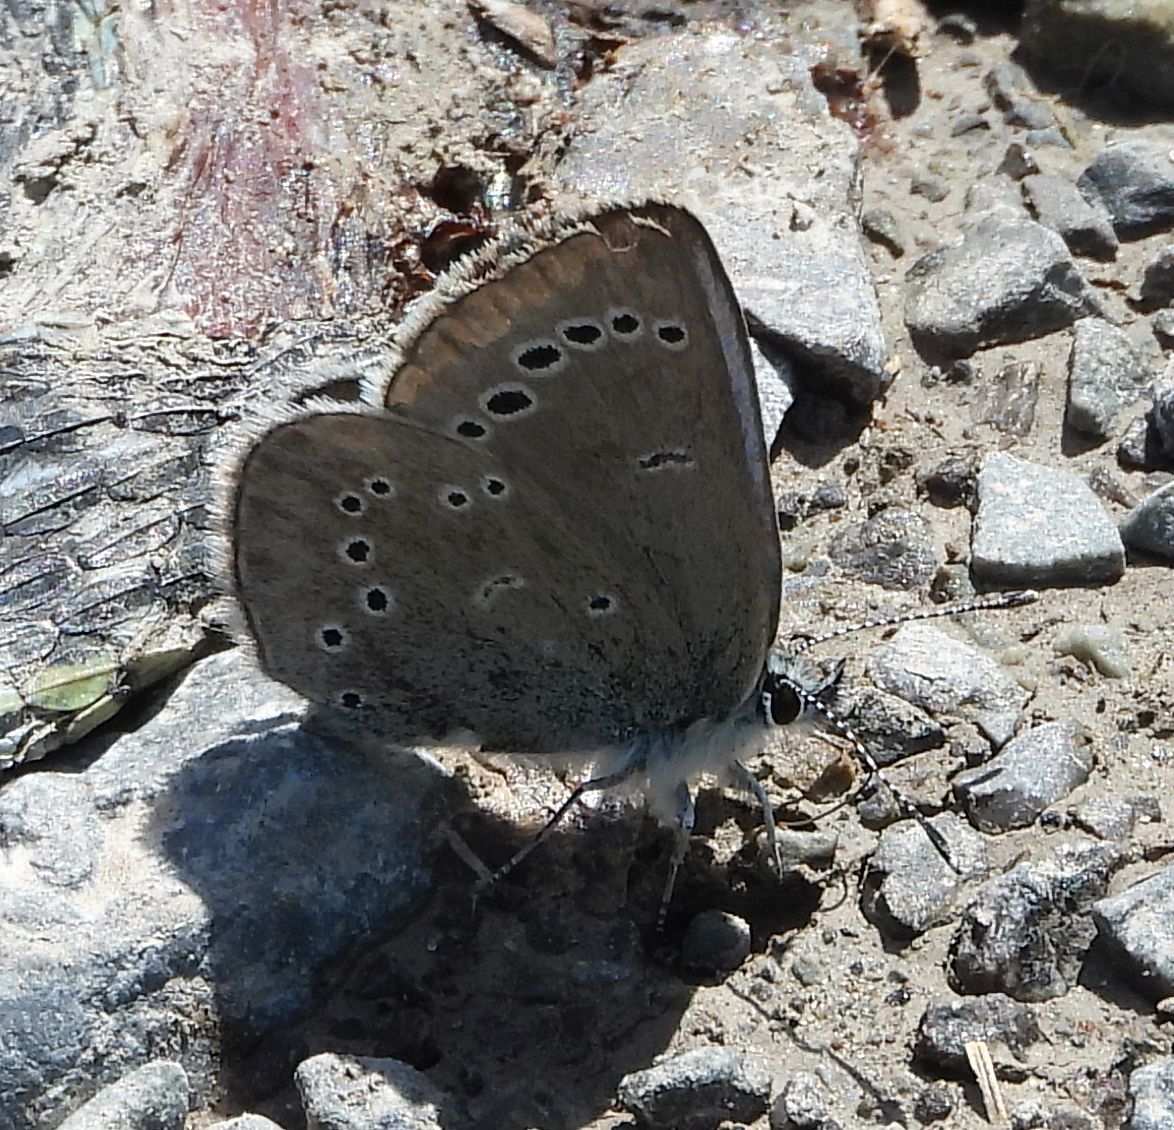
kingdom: Animalia
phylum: Arthropoda
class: Insecta
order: Lepidoptera
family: Lycaenidae
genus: Glaucopsyche
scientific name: Glaucopsyche lygdamus
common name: Silvery blue
